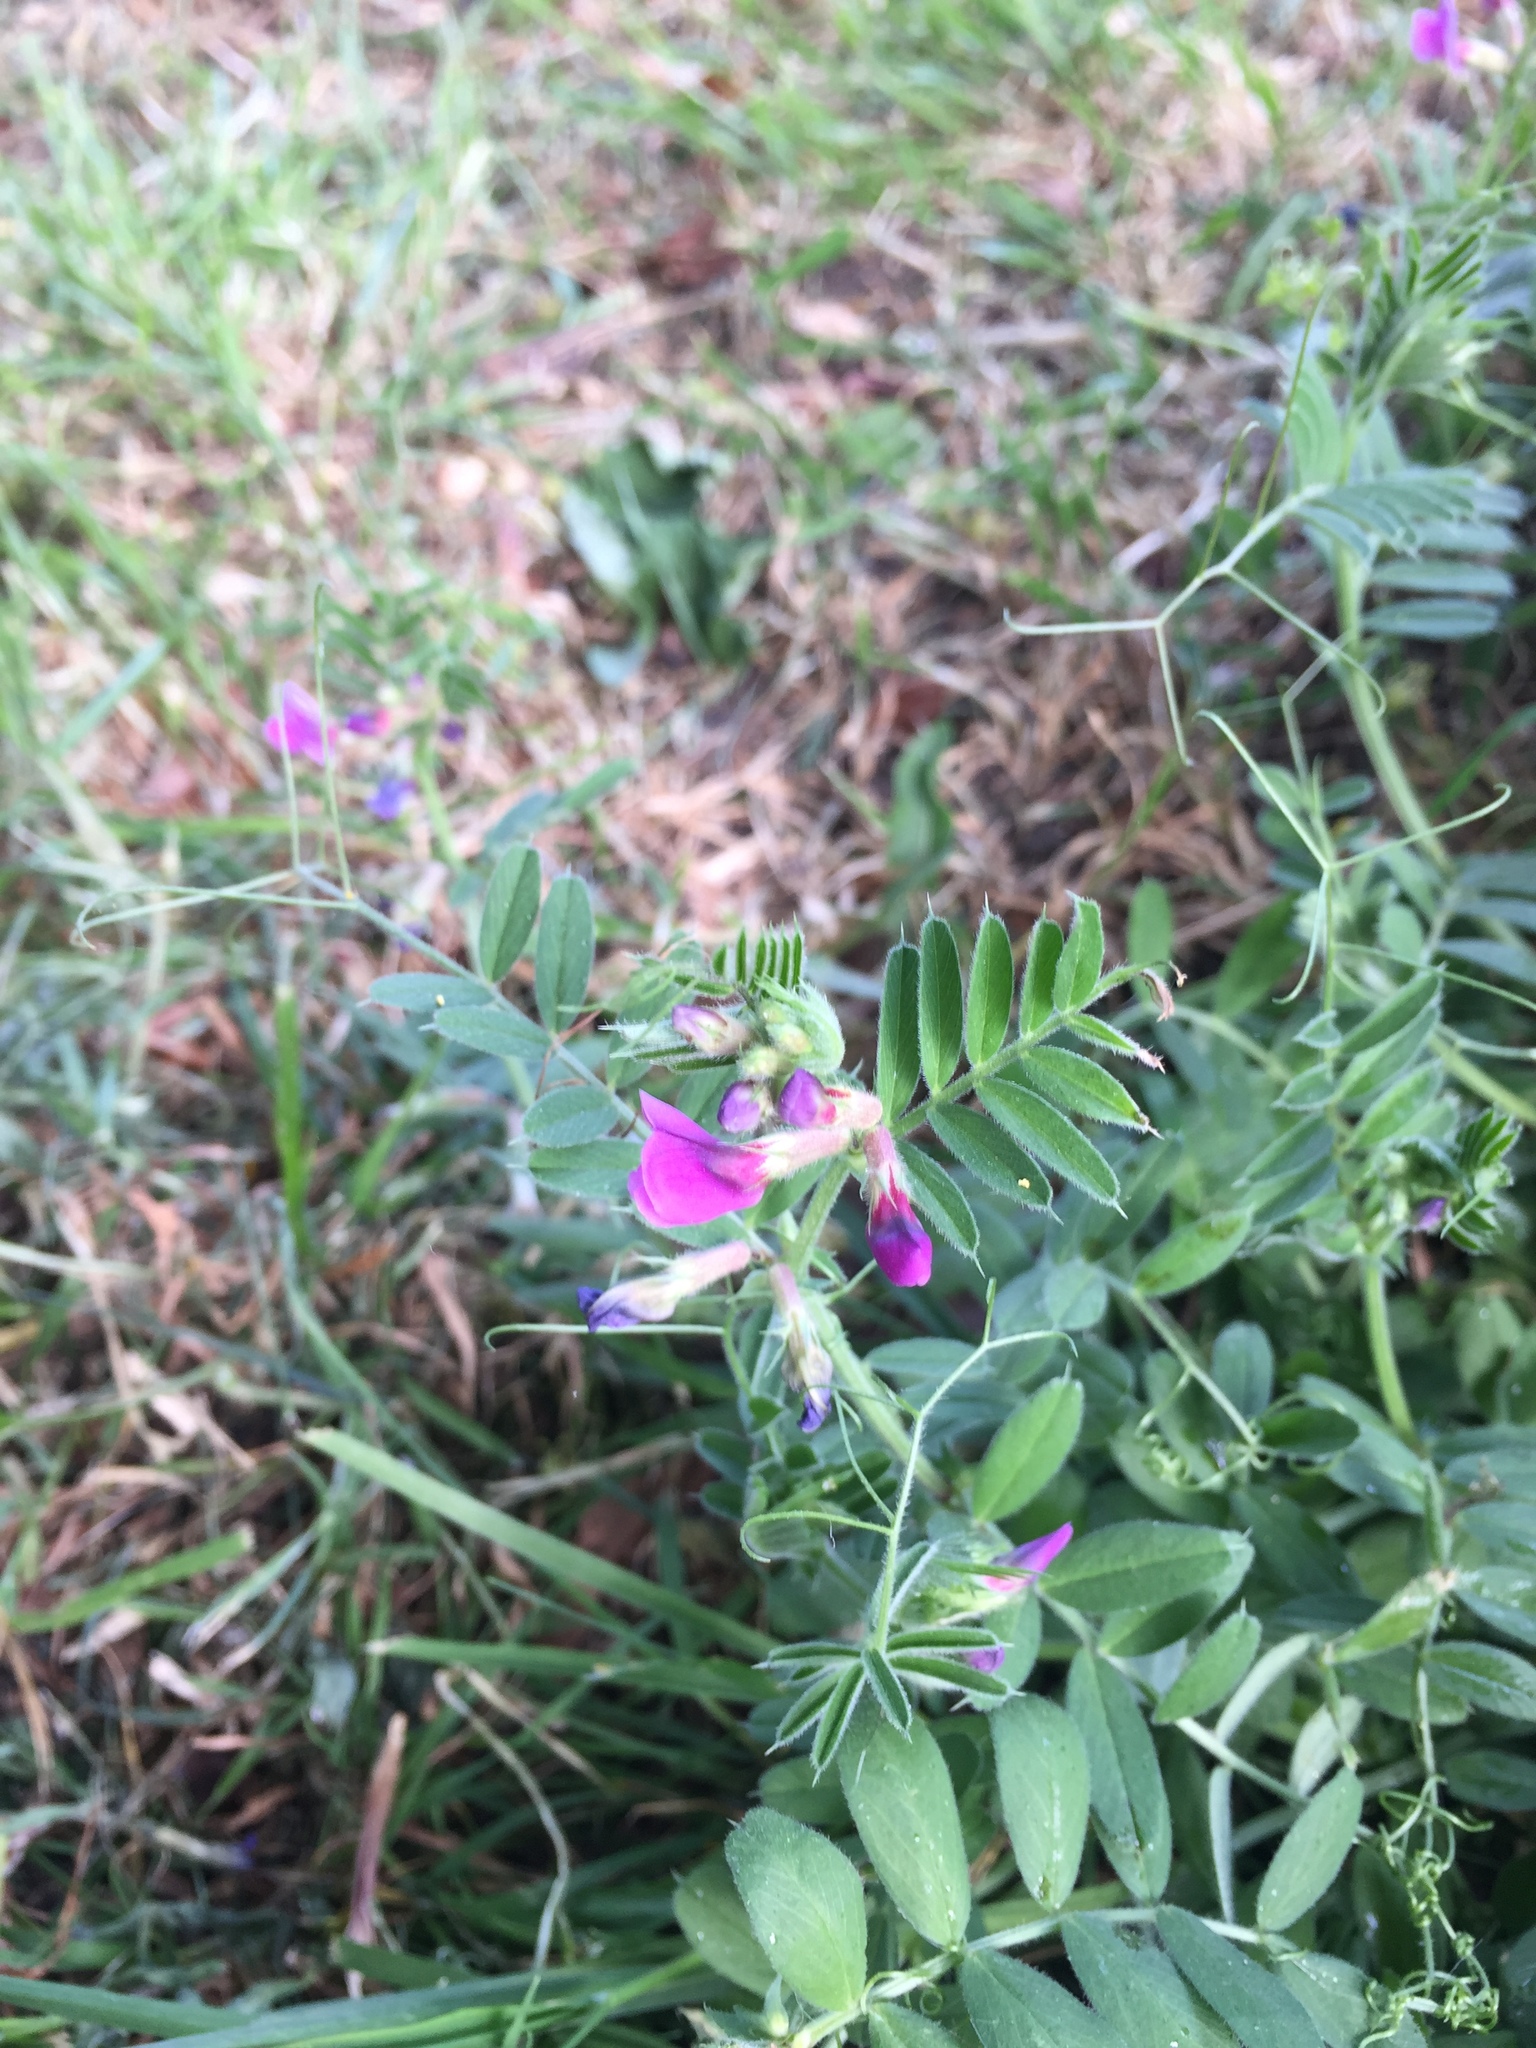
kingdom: Plantae
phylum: Tracheophyta
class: Magnoliopsida
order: Fabales
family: Fabaceae
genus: Vicia
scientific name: Vicia sativa
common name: Garden vetch
